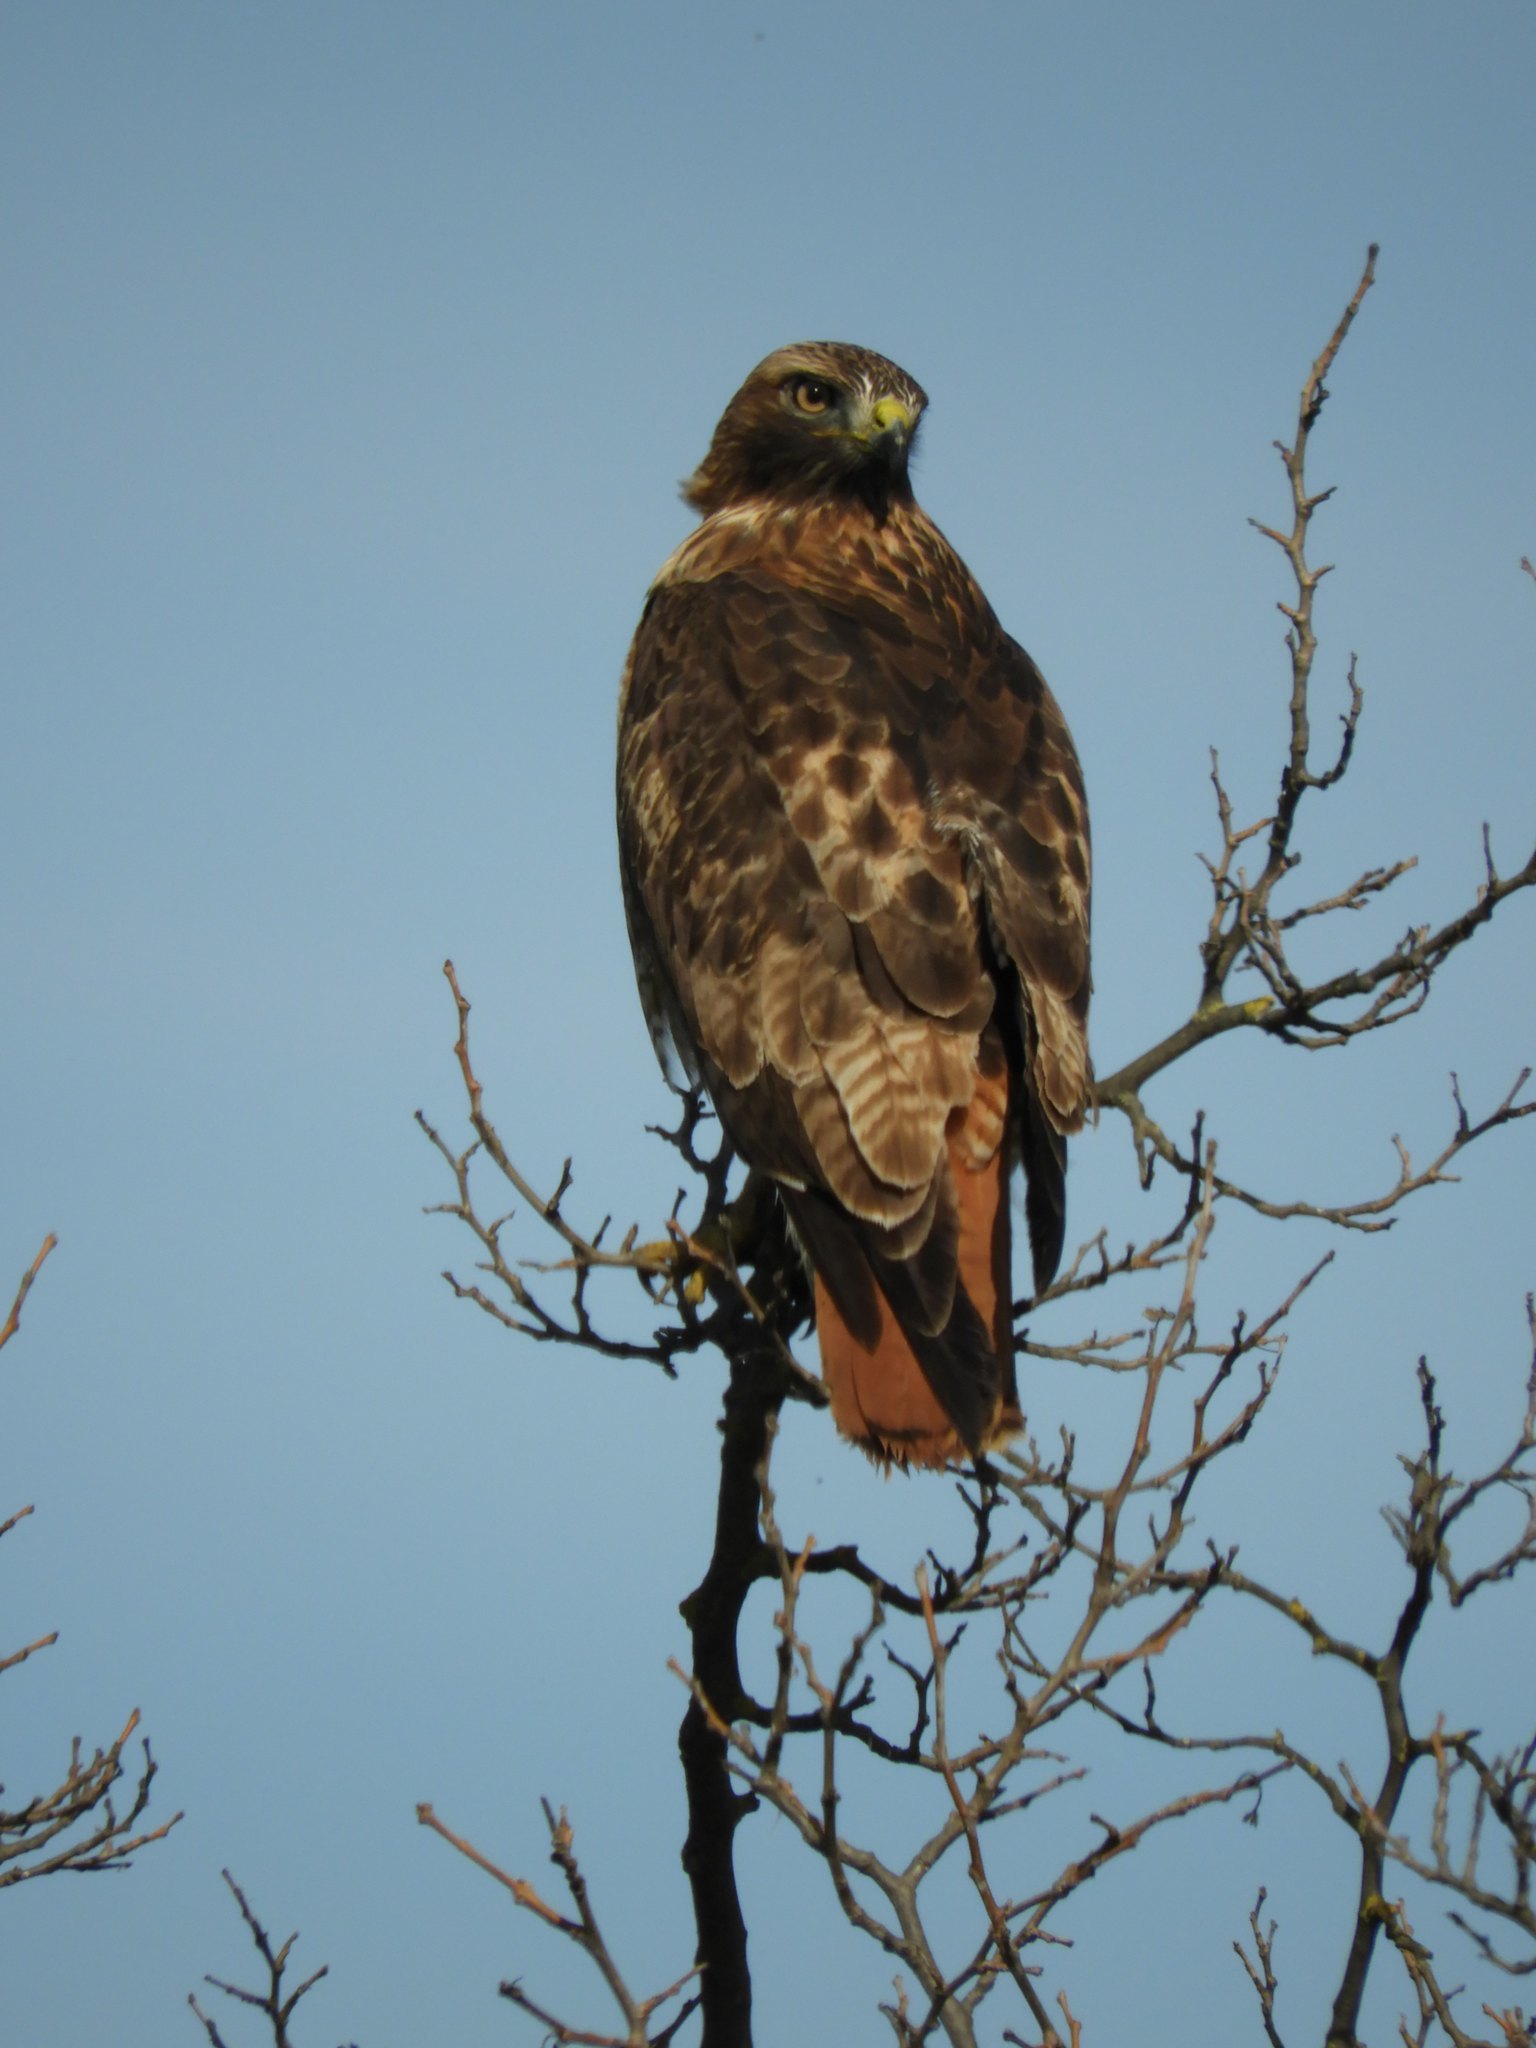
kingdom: Animalia
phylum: Chordata
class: Aves
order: Accipitriformes
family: Accipitridae
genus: Buteo
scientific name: Buteo jamaicensis
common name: Red-tailed hawk
